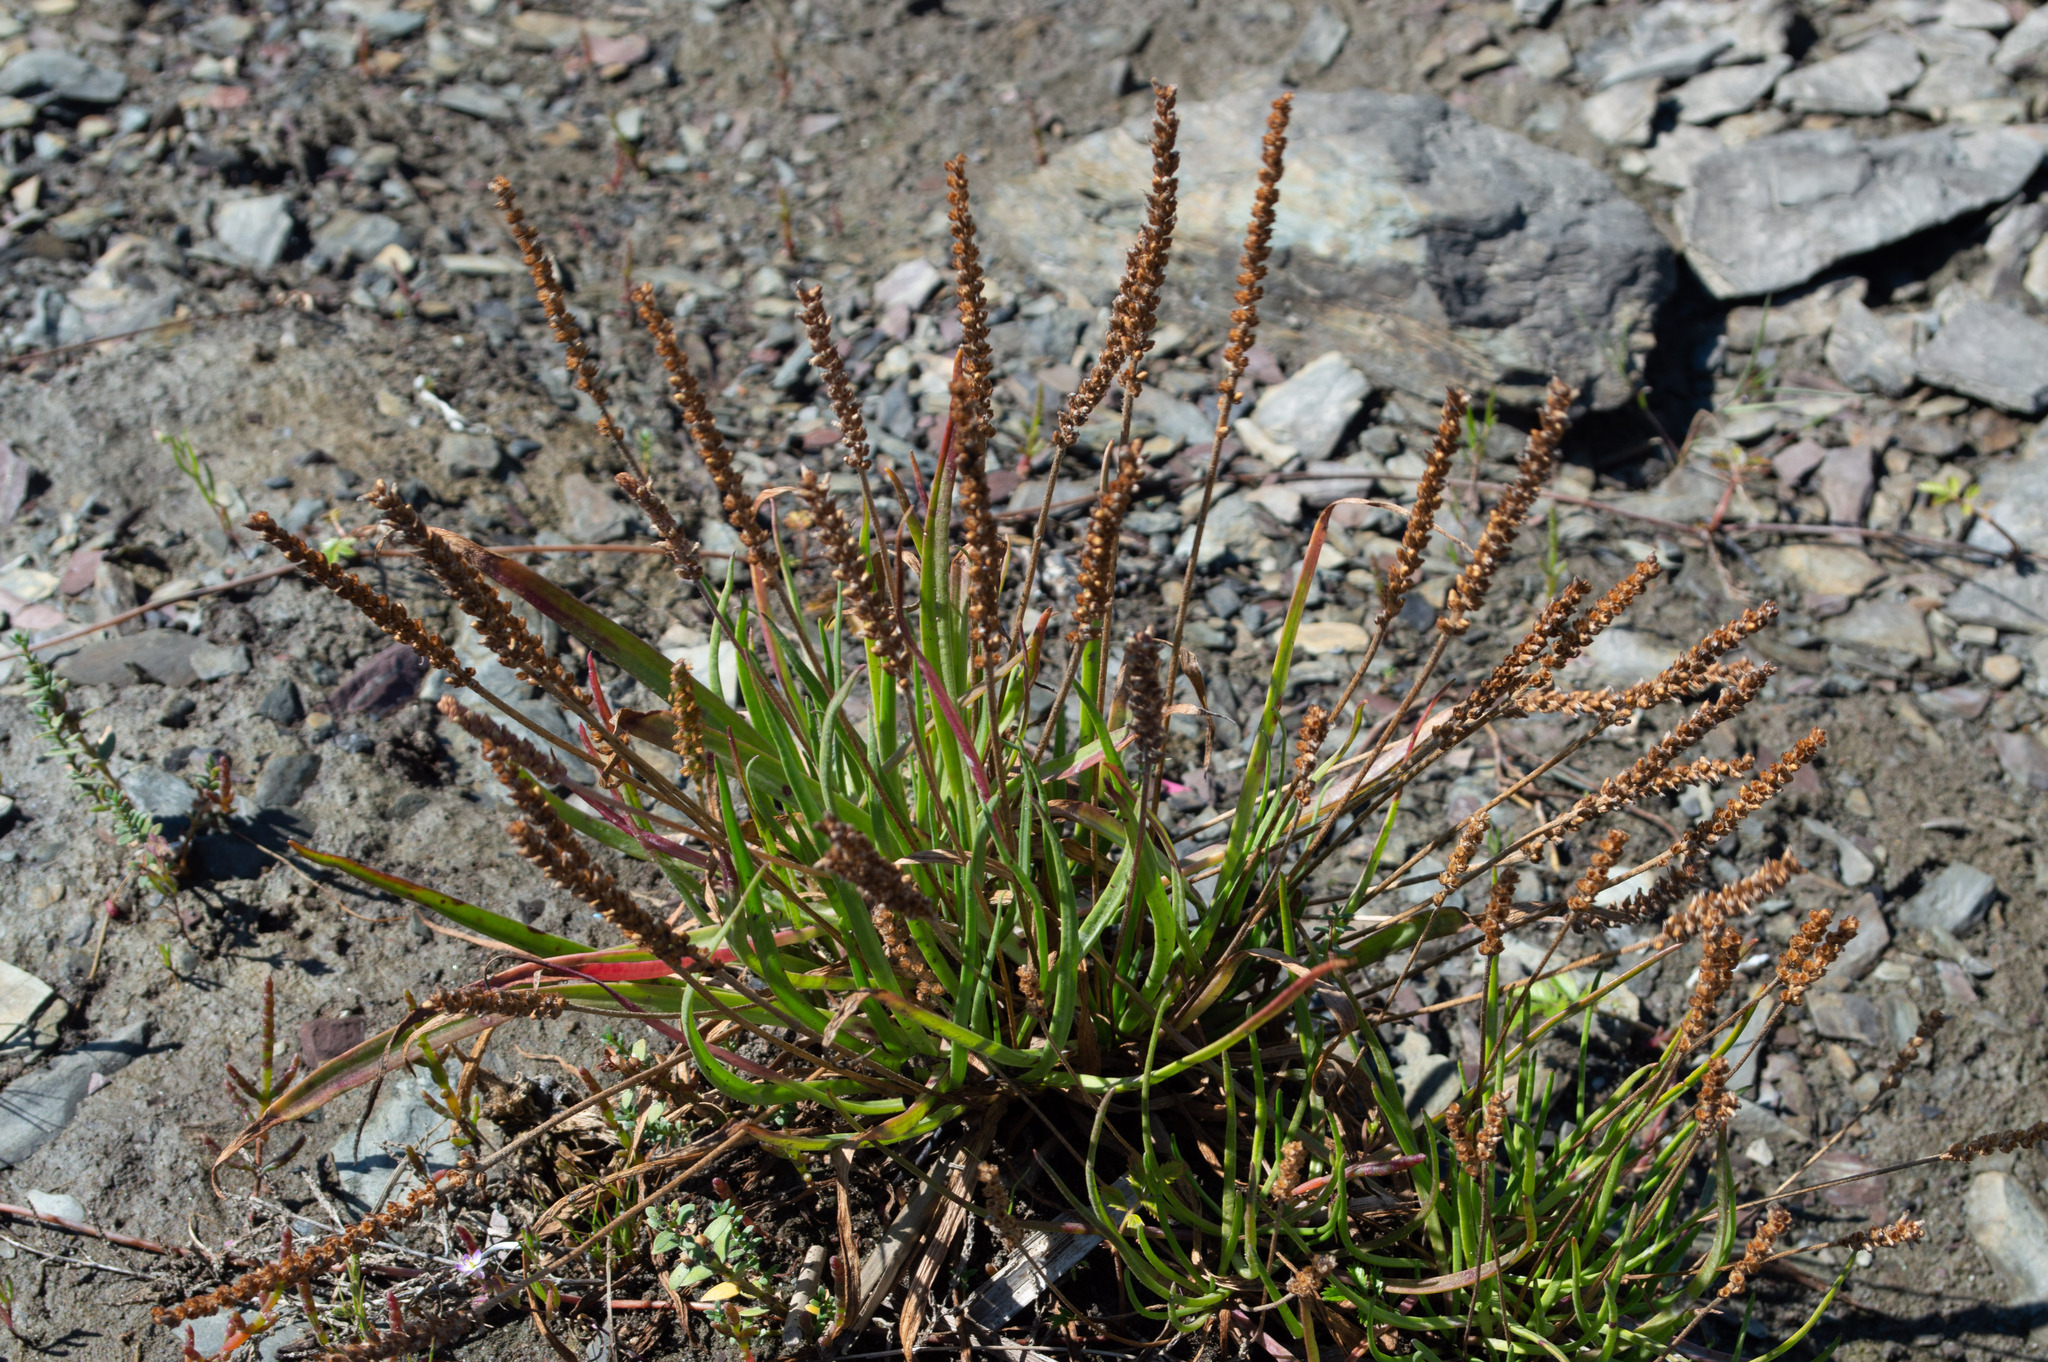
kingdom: Plantae
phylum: Tracheophyta
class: Magnoliopsida
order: Lamiales
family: Plantaginaceae
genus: Plantago
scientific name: Plantago maritima
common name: Sea plantain
